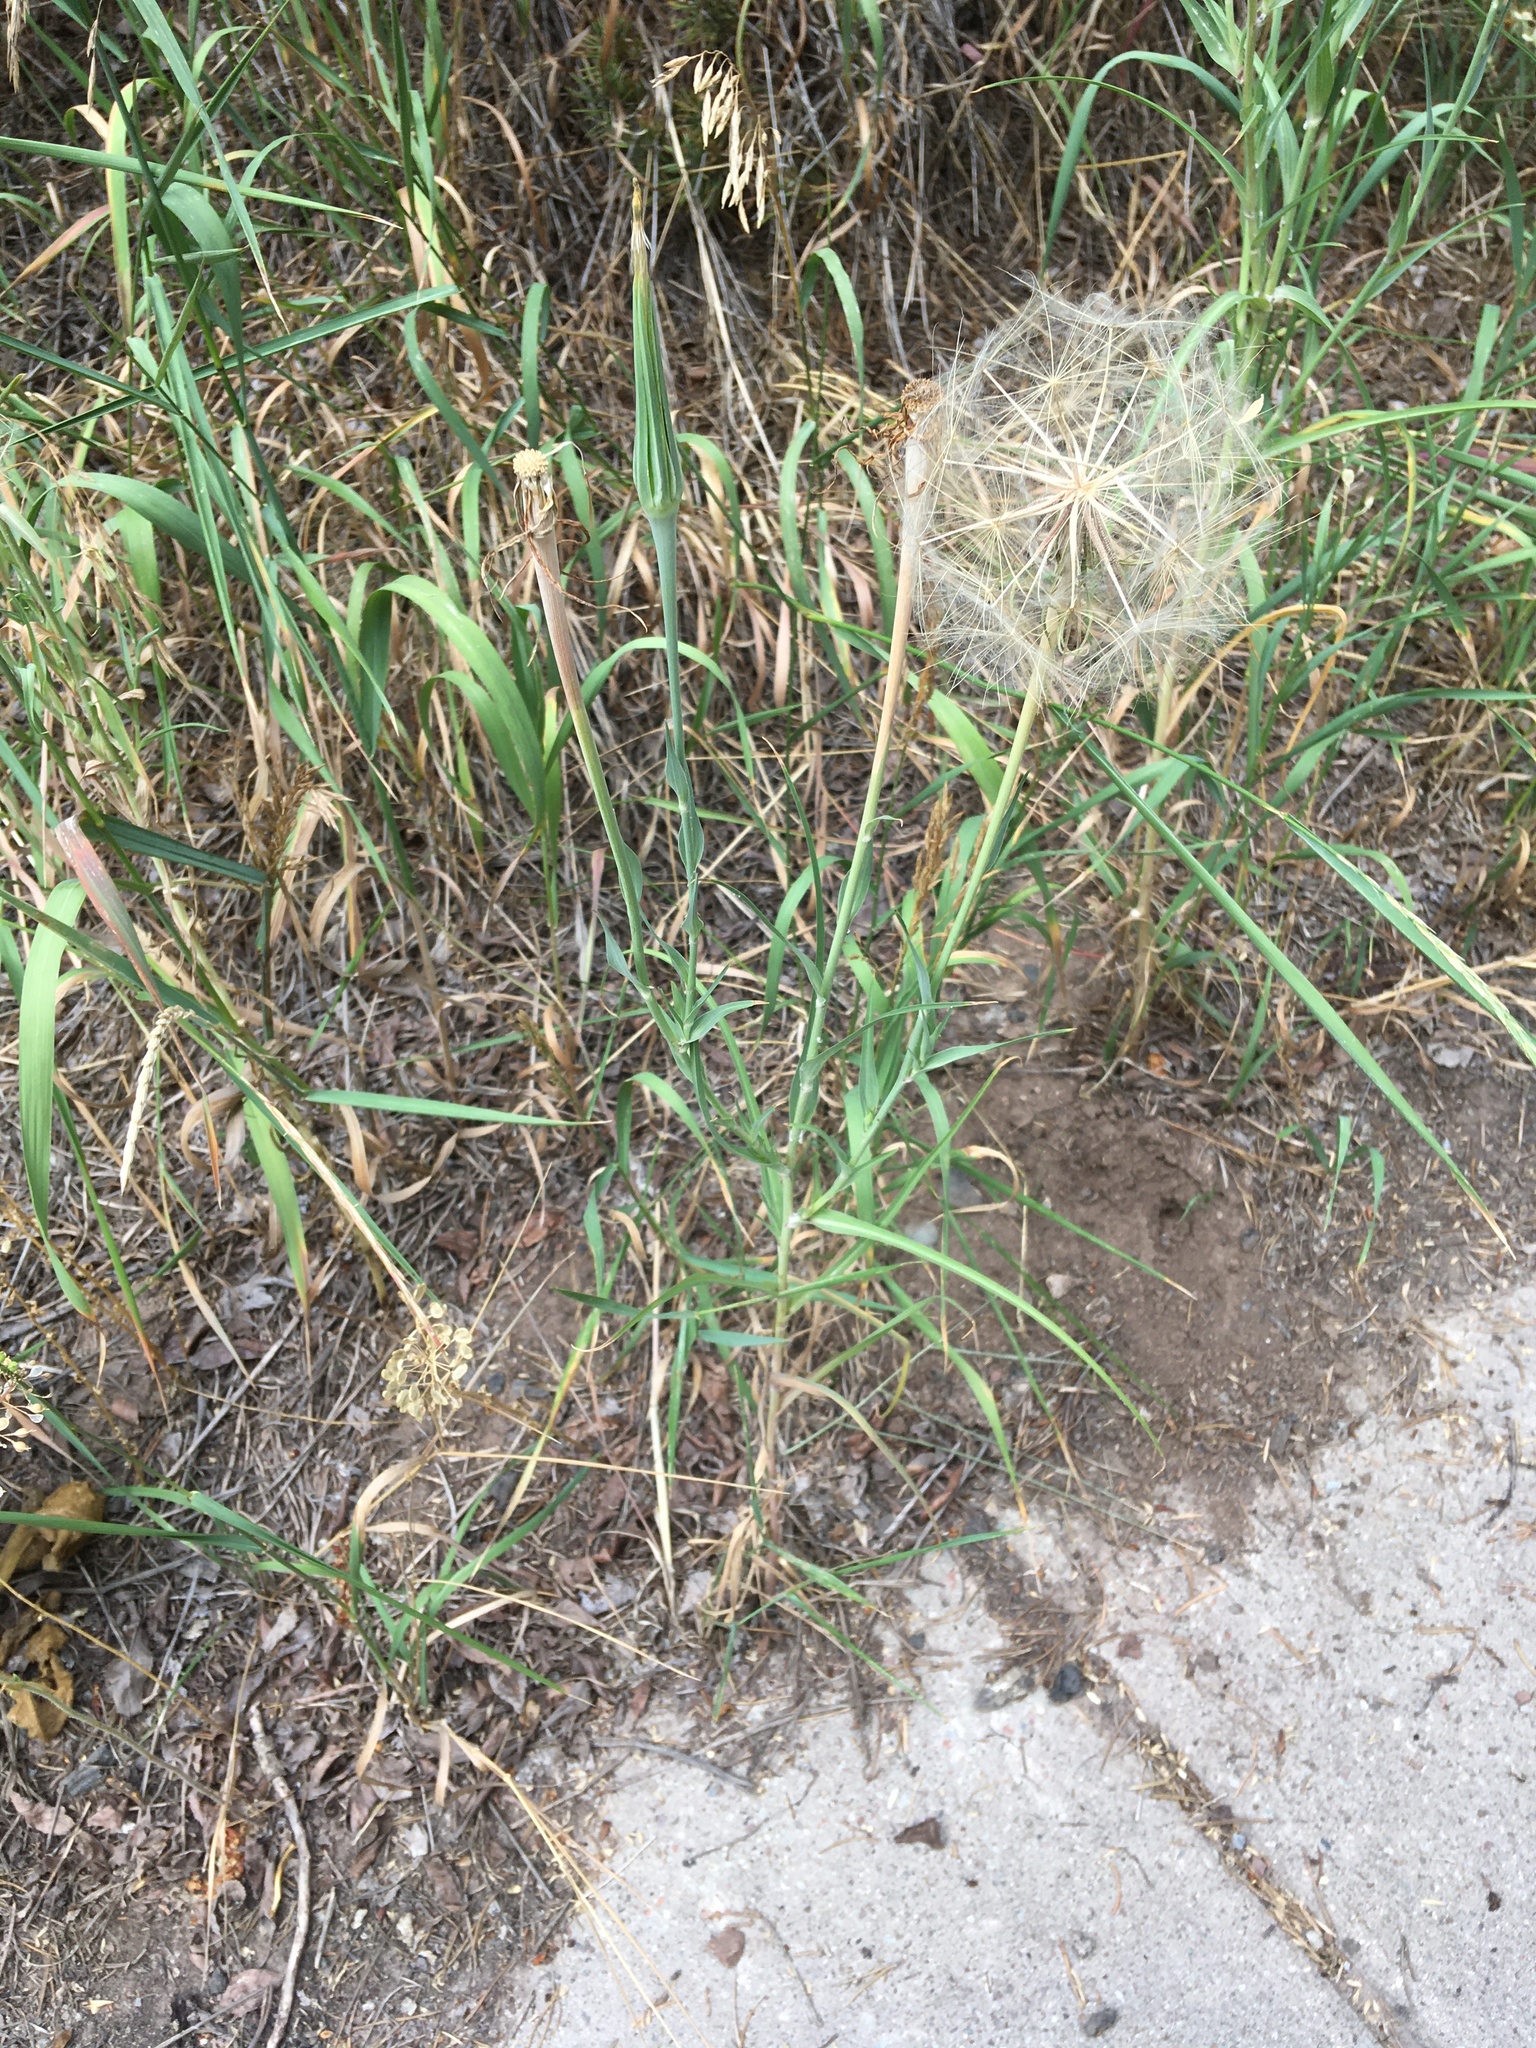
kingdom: Plantae
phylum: Tracheophyta
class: Magnoliopsida
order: Asterales
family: Asteraceae
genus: Tragopogon
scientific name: Tragopogon dubius
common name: Yellow salsify
